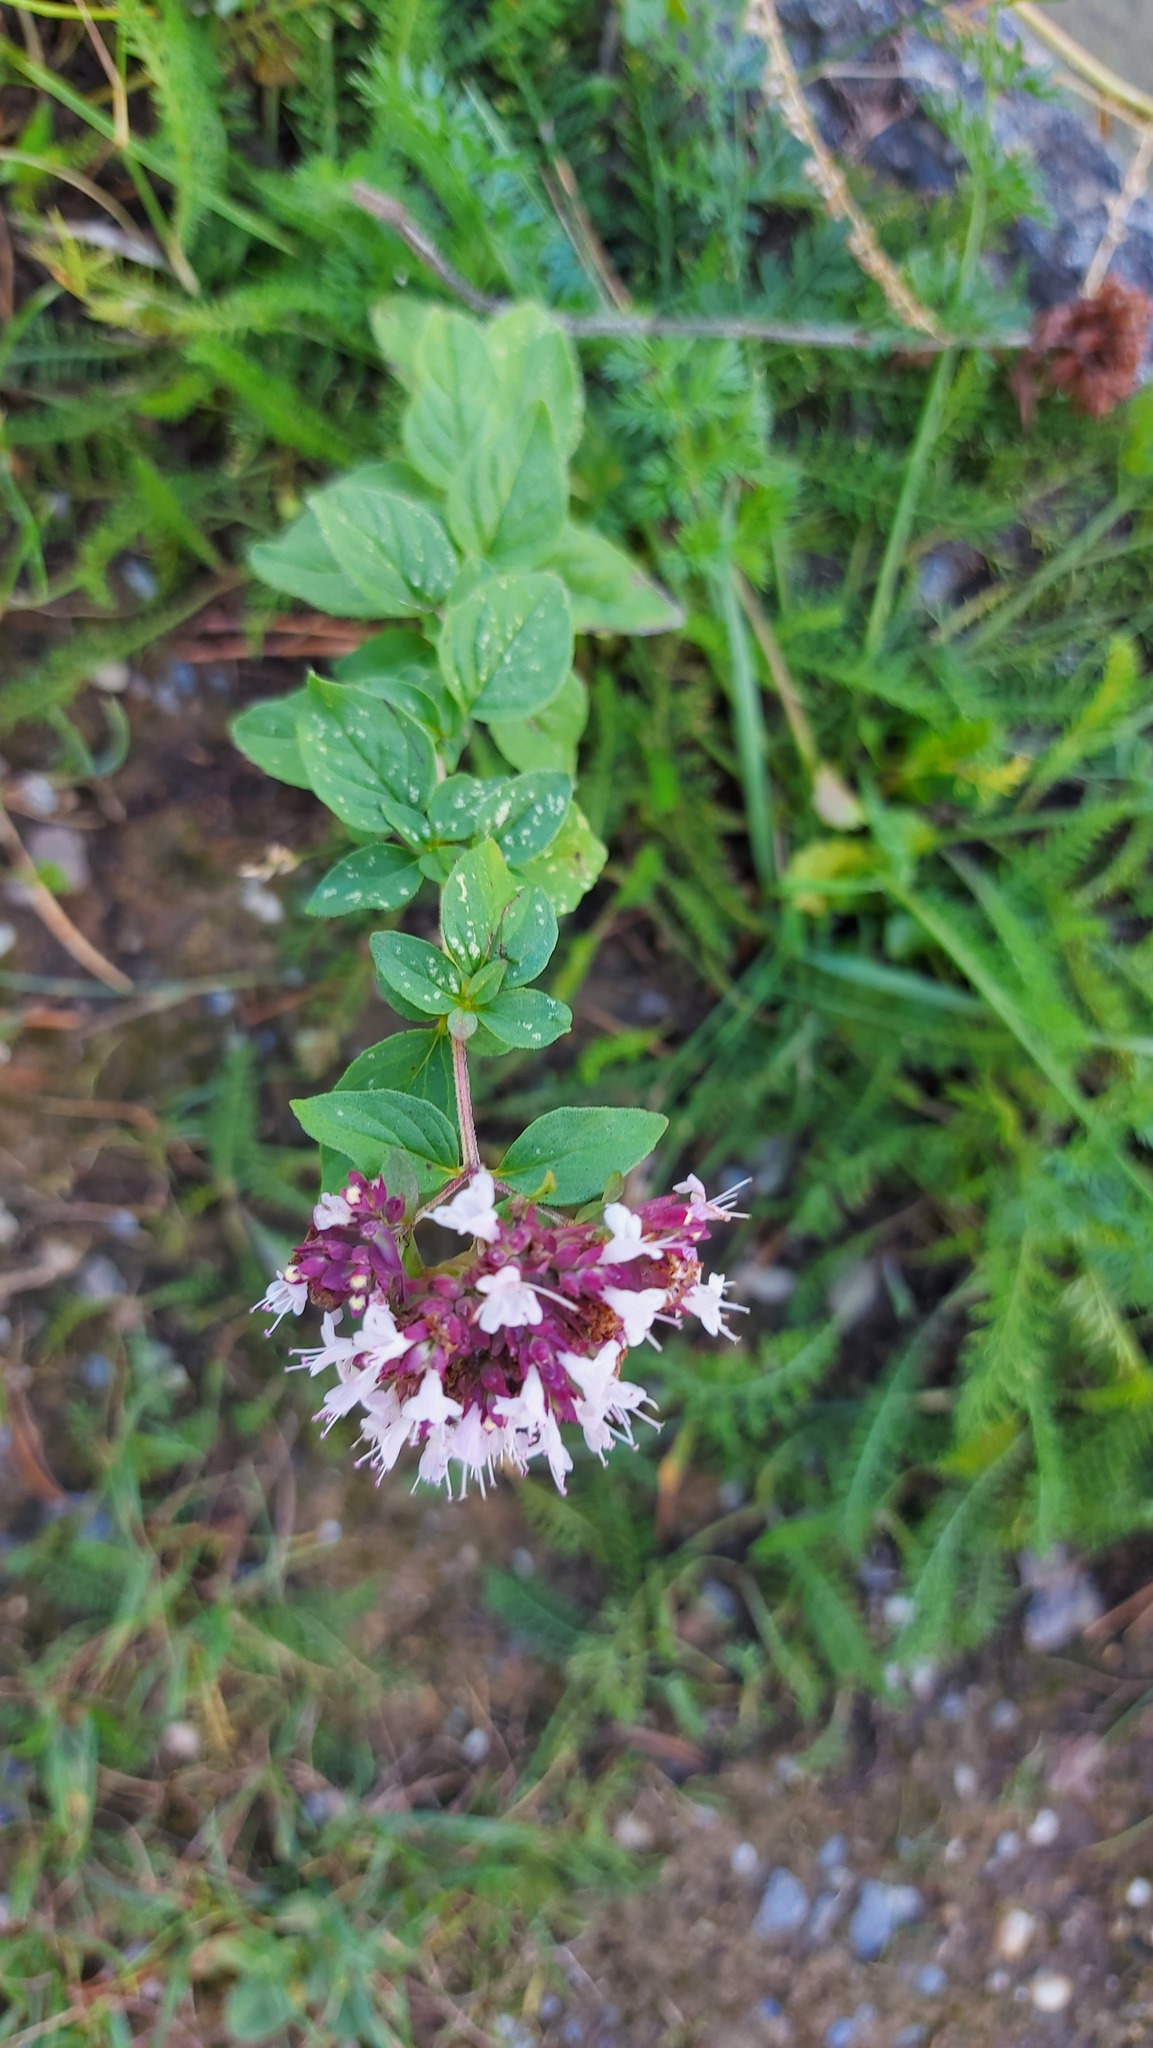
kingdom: Plantae
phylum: Tracheophyta
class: Magnoliopsida
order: Lamiales
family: Lamiaceae
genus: Origanum
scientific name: Origanum vulgare
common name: Wild marjoram
